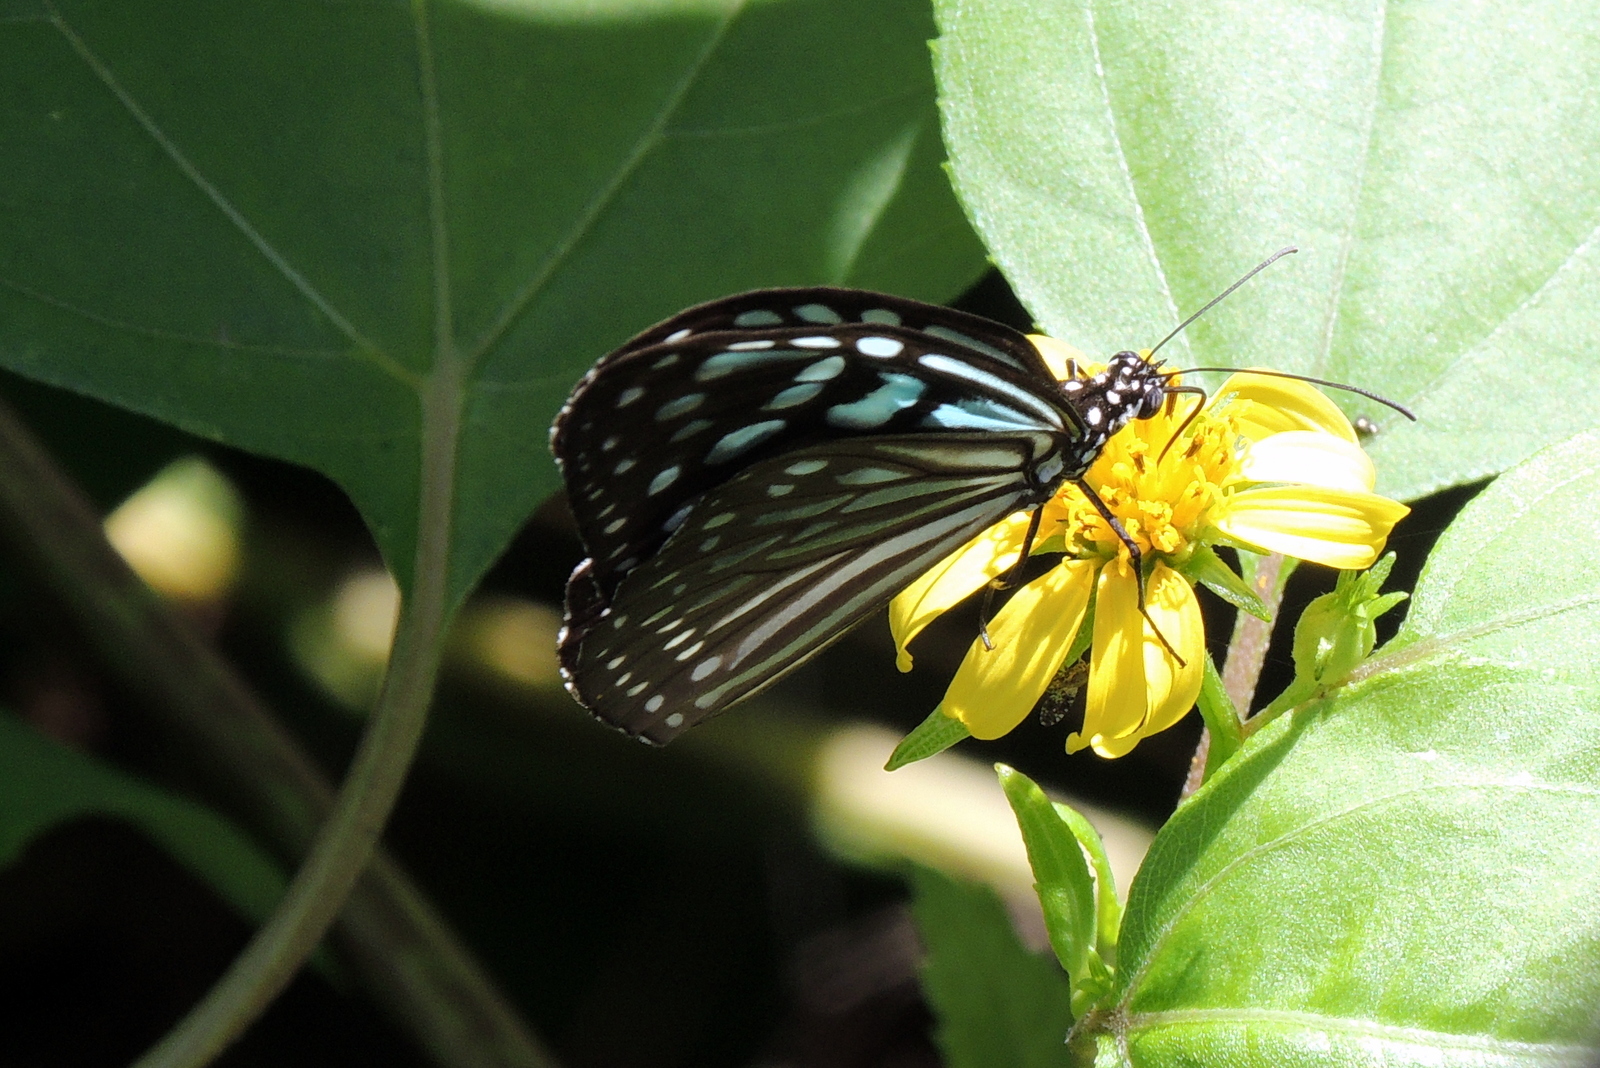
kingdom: Animalia
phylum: Arthropoda
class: Insecta
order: Lepidoptera
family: Nymphalidae
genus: Ideopsis
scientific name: Ideopsis similis
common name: Ceylon blue glassy tiger
